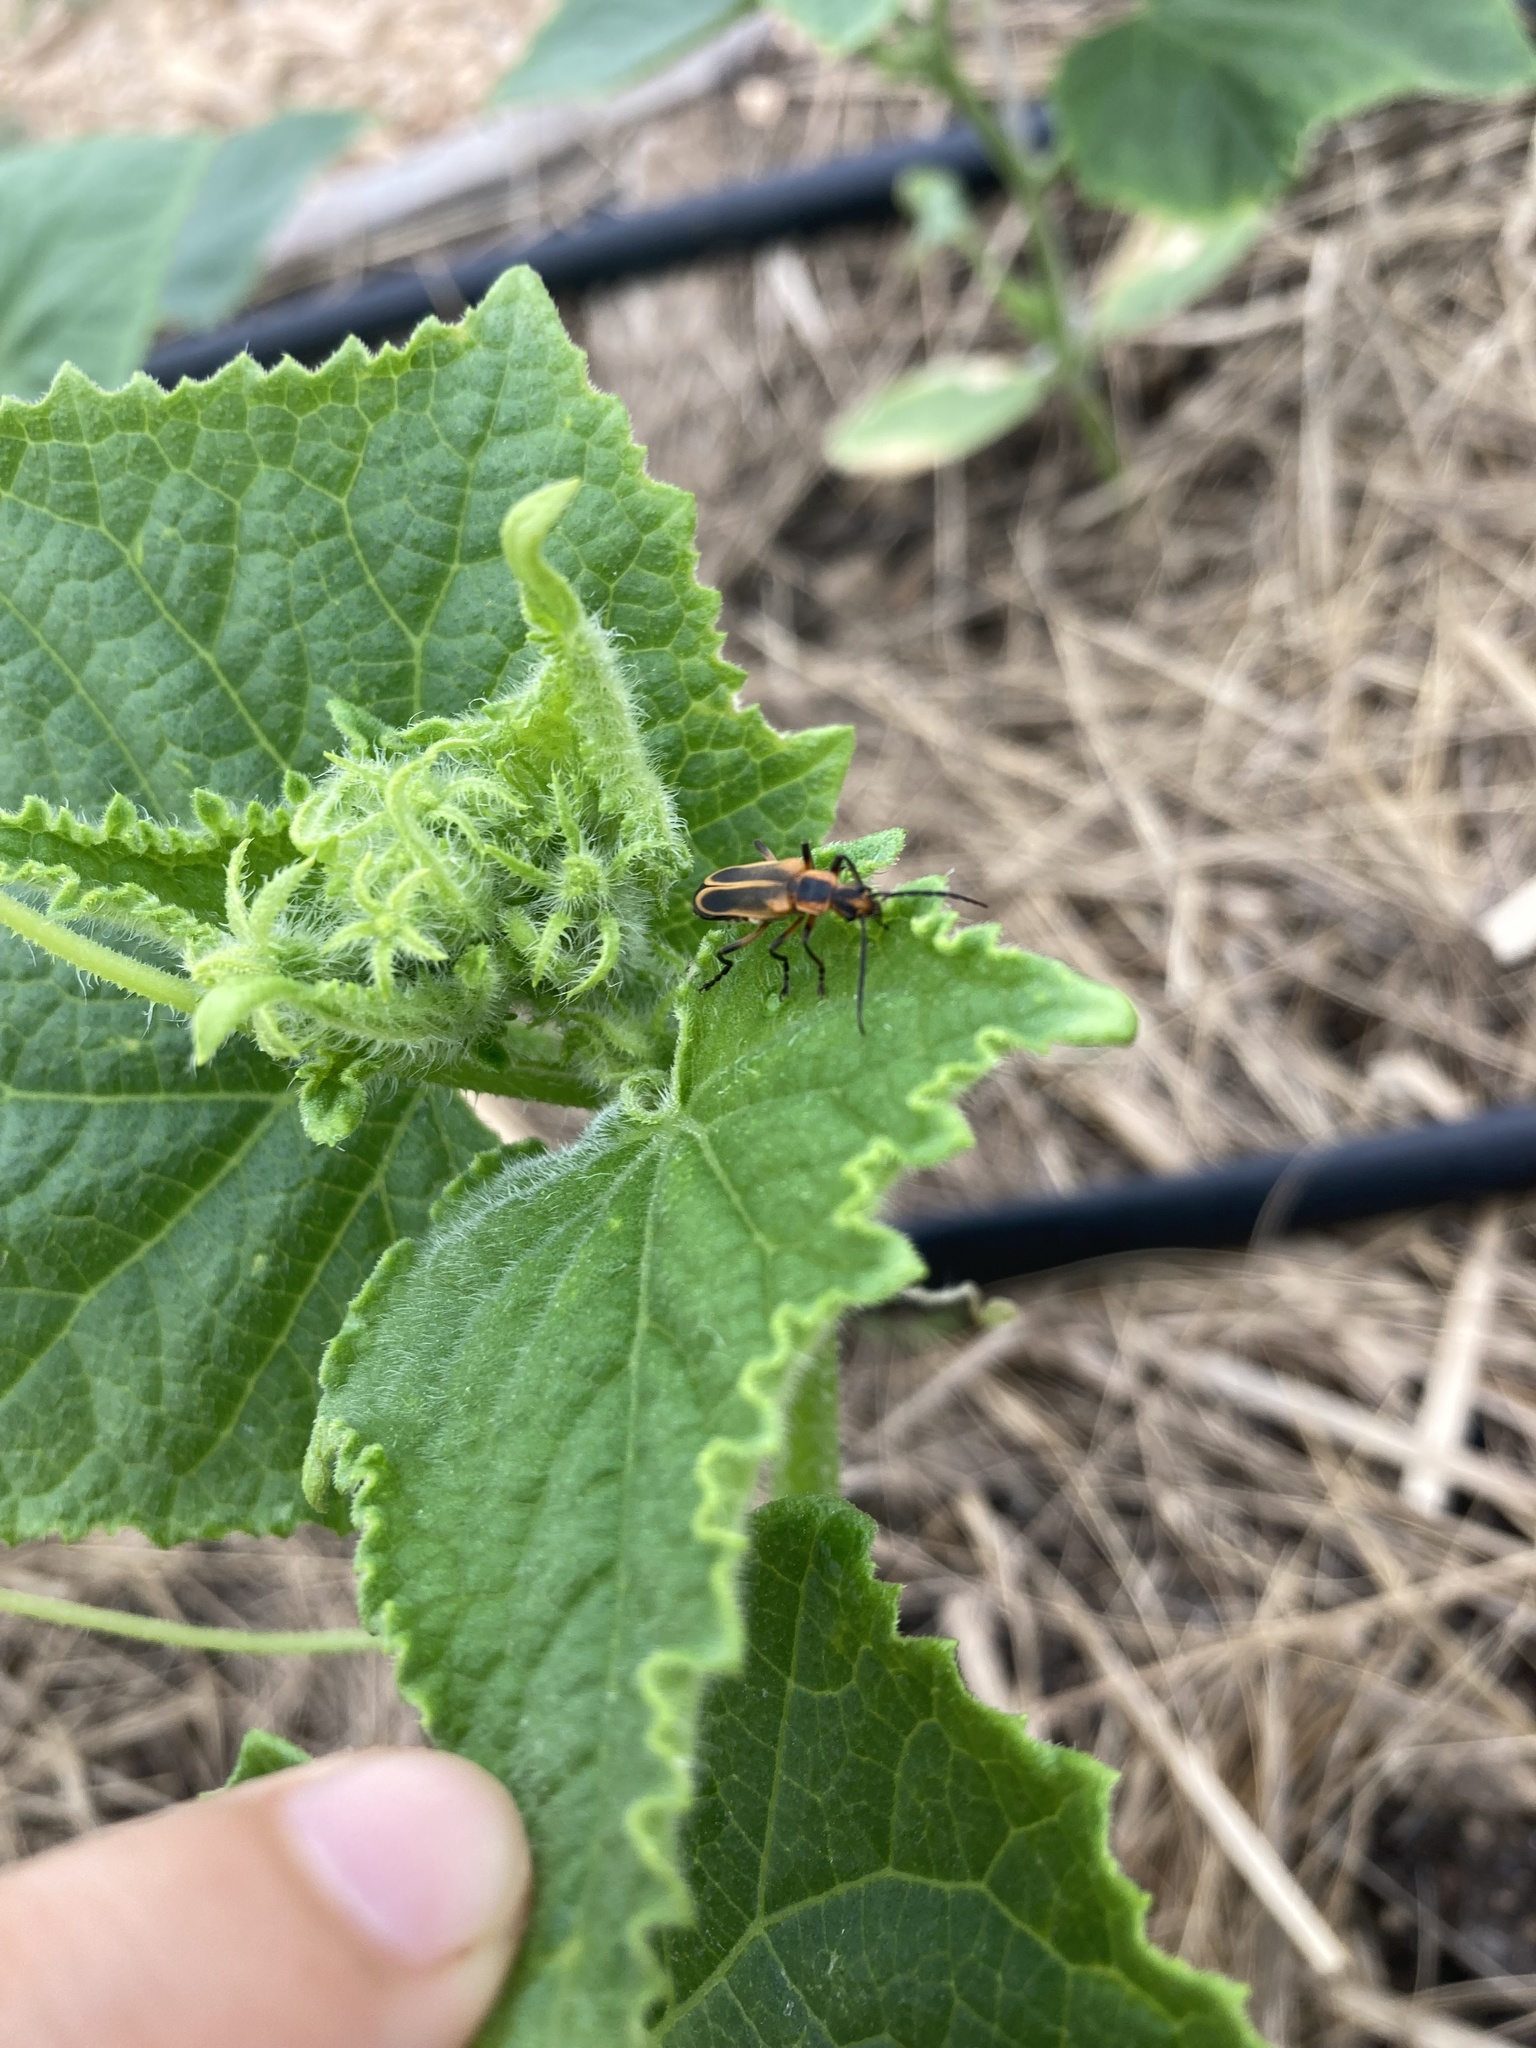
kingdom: Animalia
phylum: Arthropoda
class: Insecta
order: Coleoptera
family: Cantharidae
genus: Chauliognathus
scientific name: Chauliognathus marginatus
